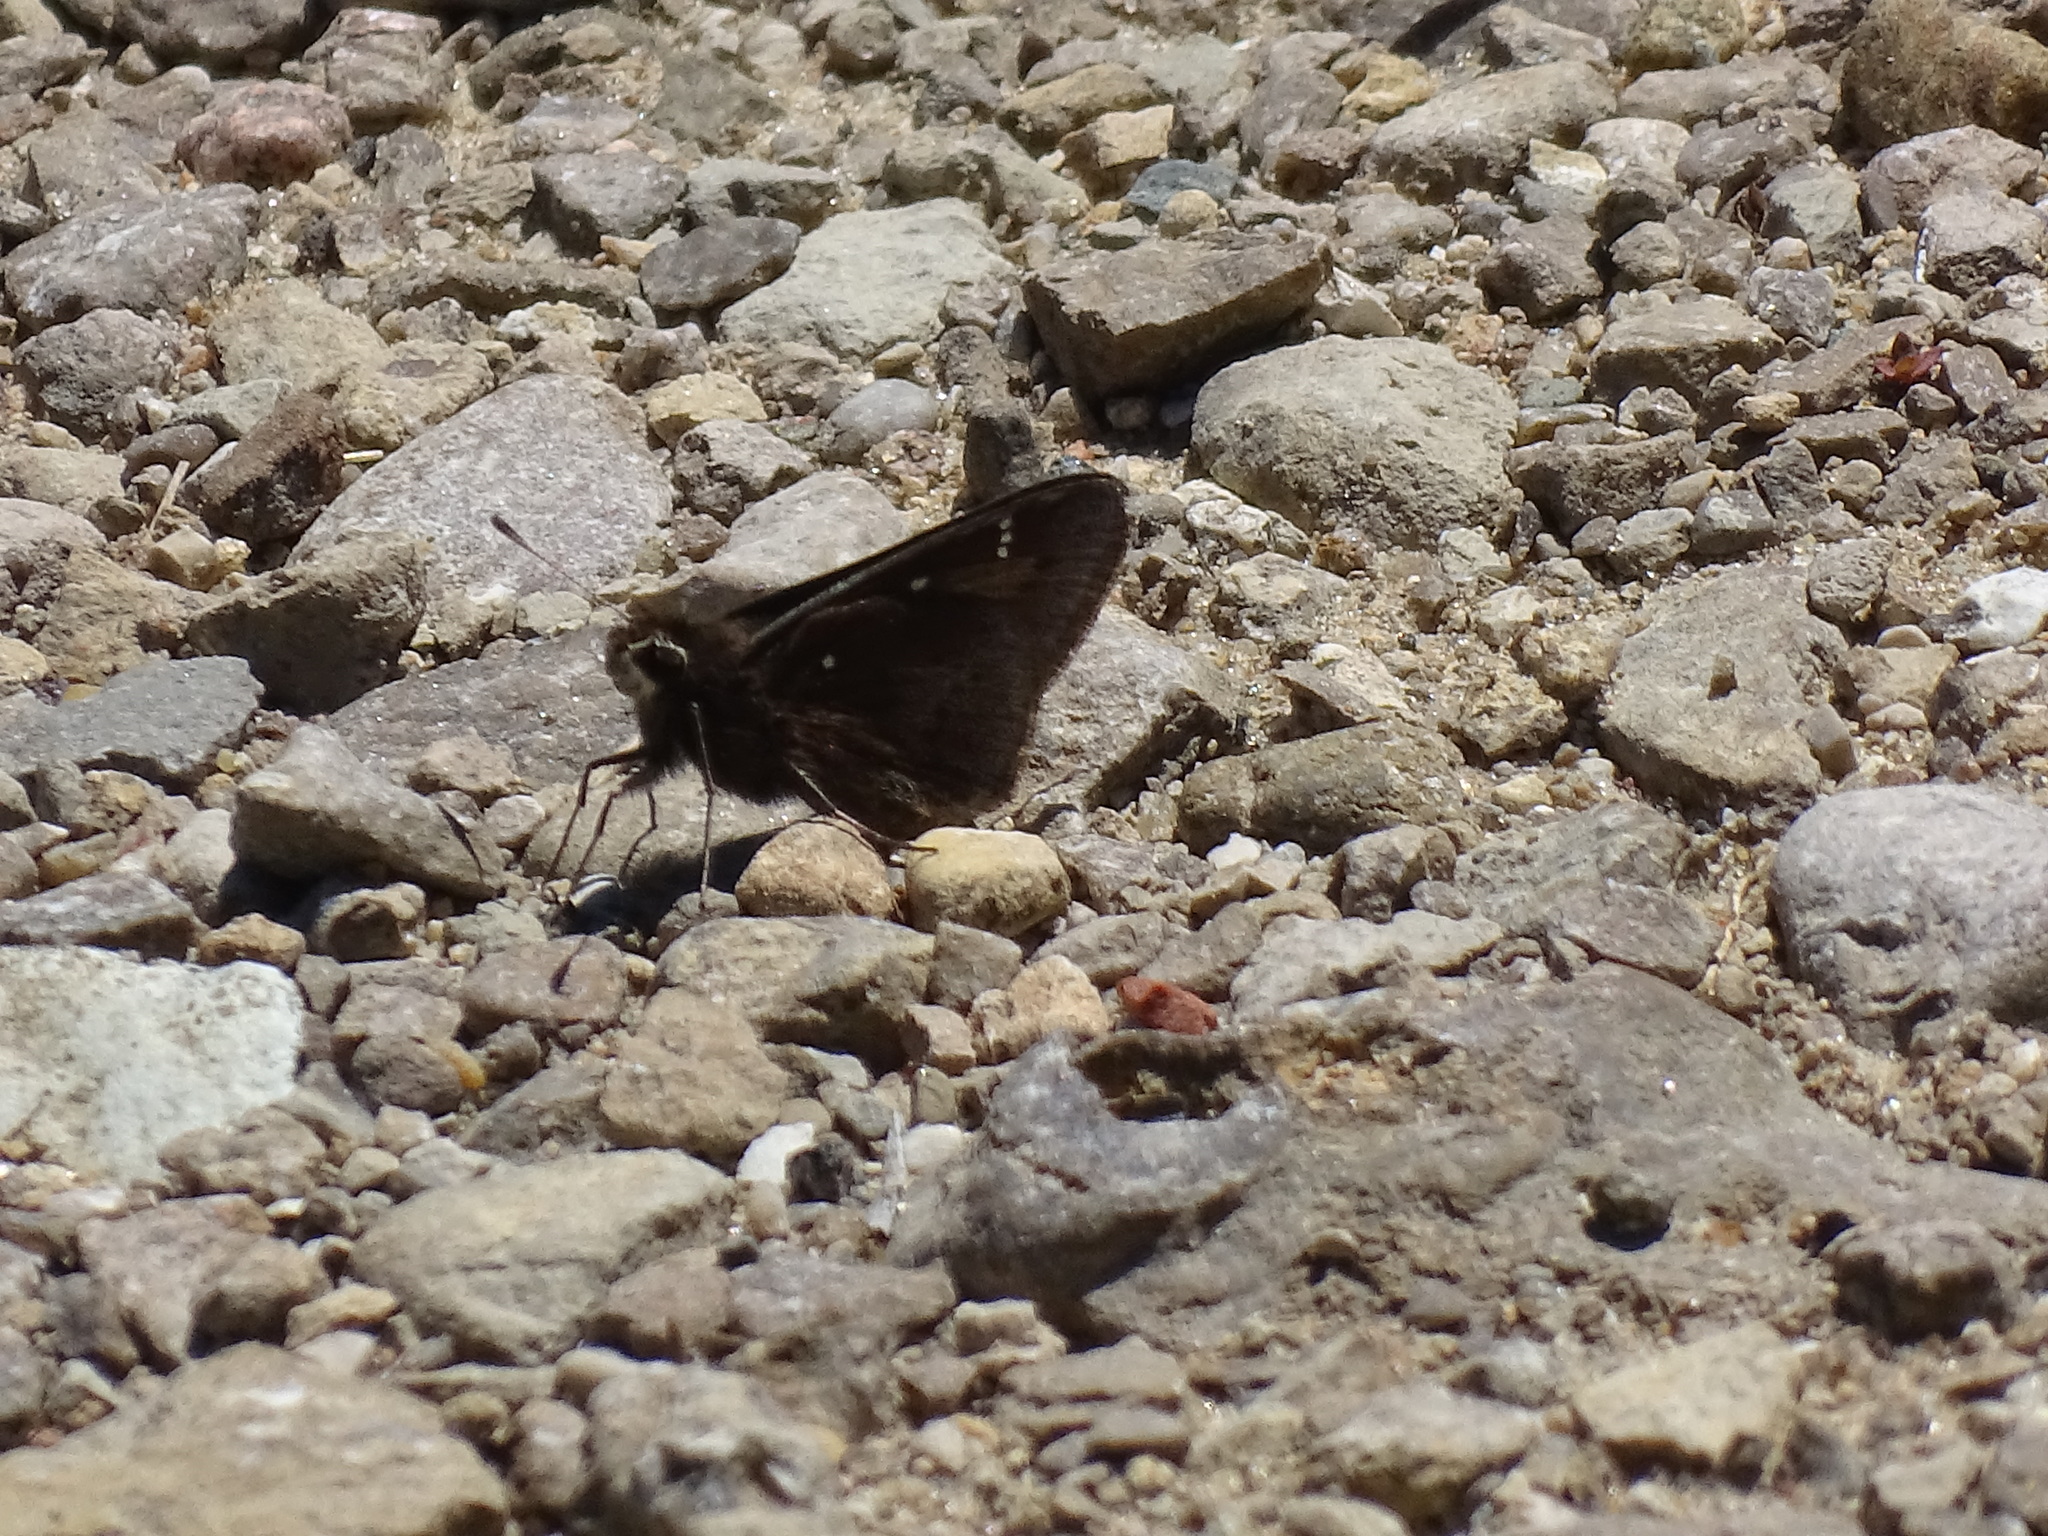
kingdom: Animalia
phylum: Arthropoda
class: Insecta
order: Lepidoptera
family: Hesperiidae
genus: Atrytonopsis
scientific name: Atrytonopsis hianna
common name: Dusted skipper
